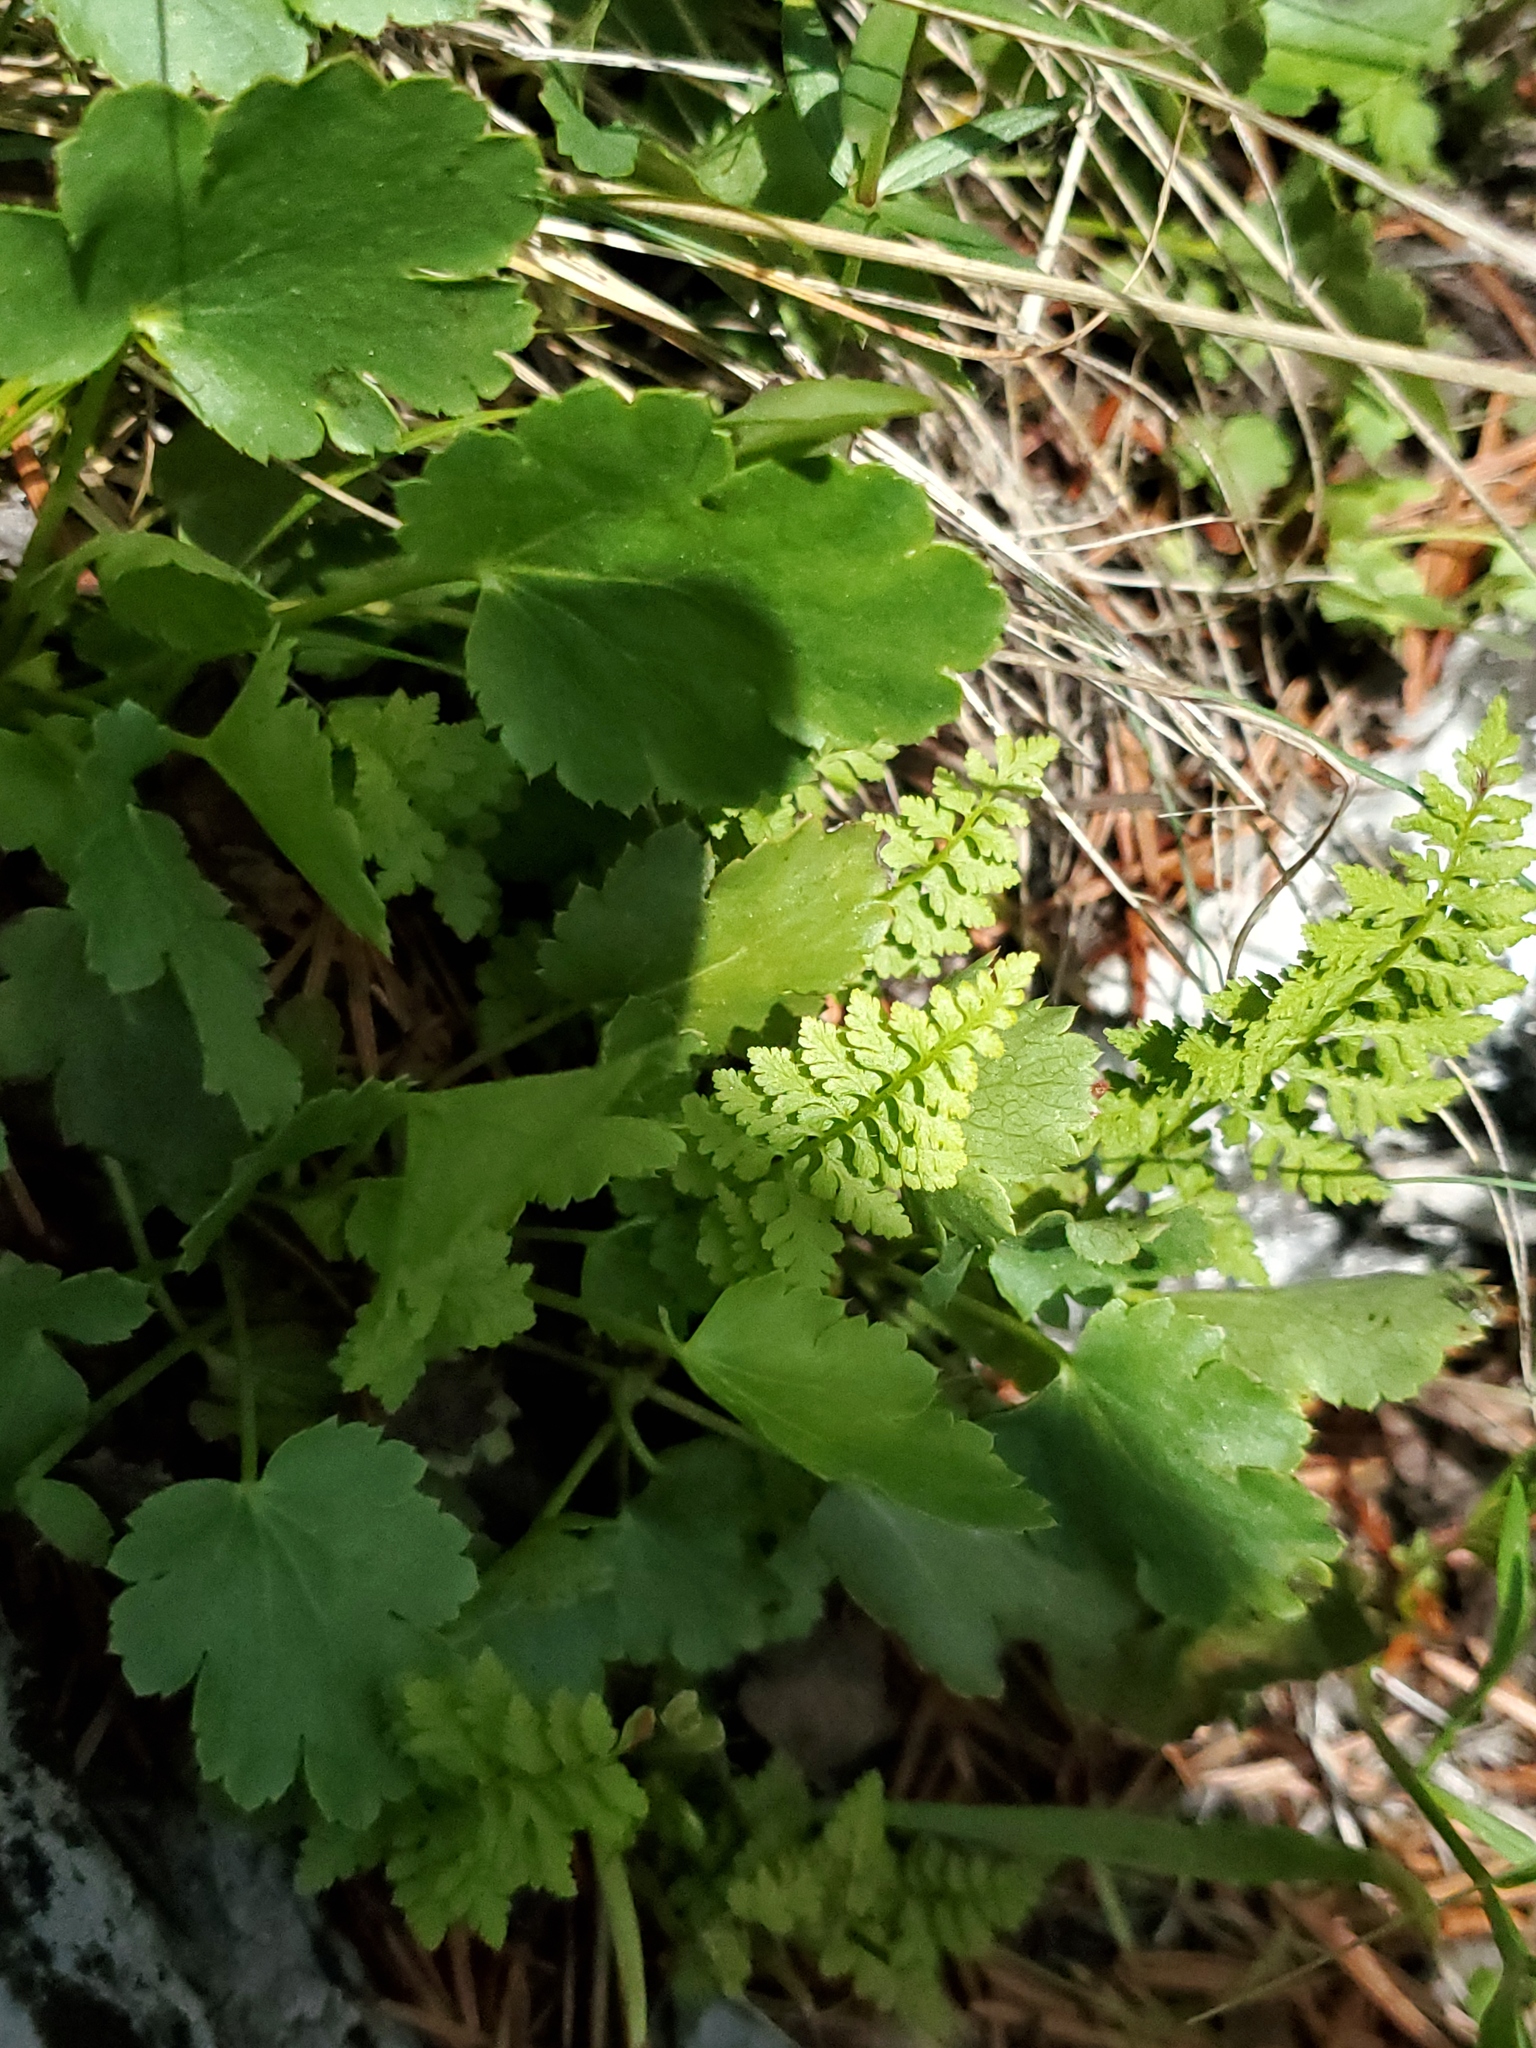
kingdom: Plantae
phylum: Tracheophyta
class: Polypodiopsida
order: Polypodiales
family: Cystopteridaceae
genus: Cystopteris
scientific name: Cystopteris fragilis
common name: Brittle bladder fern
